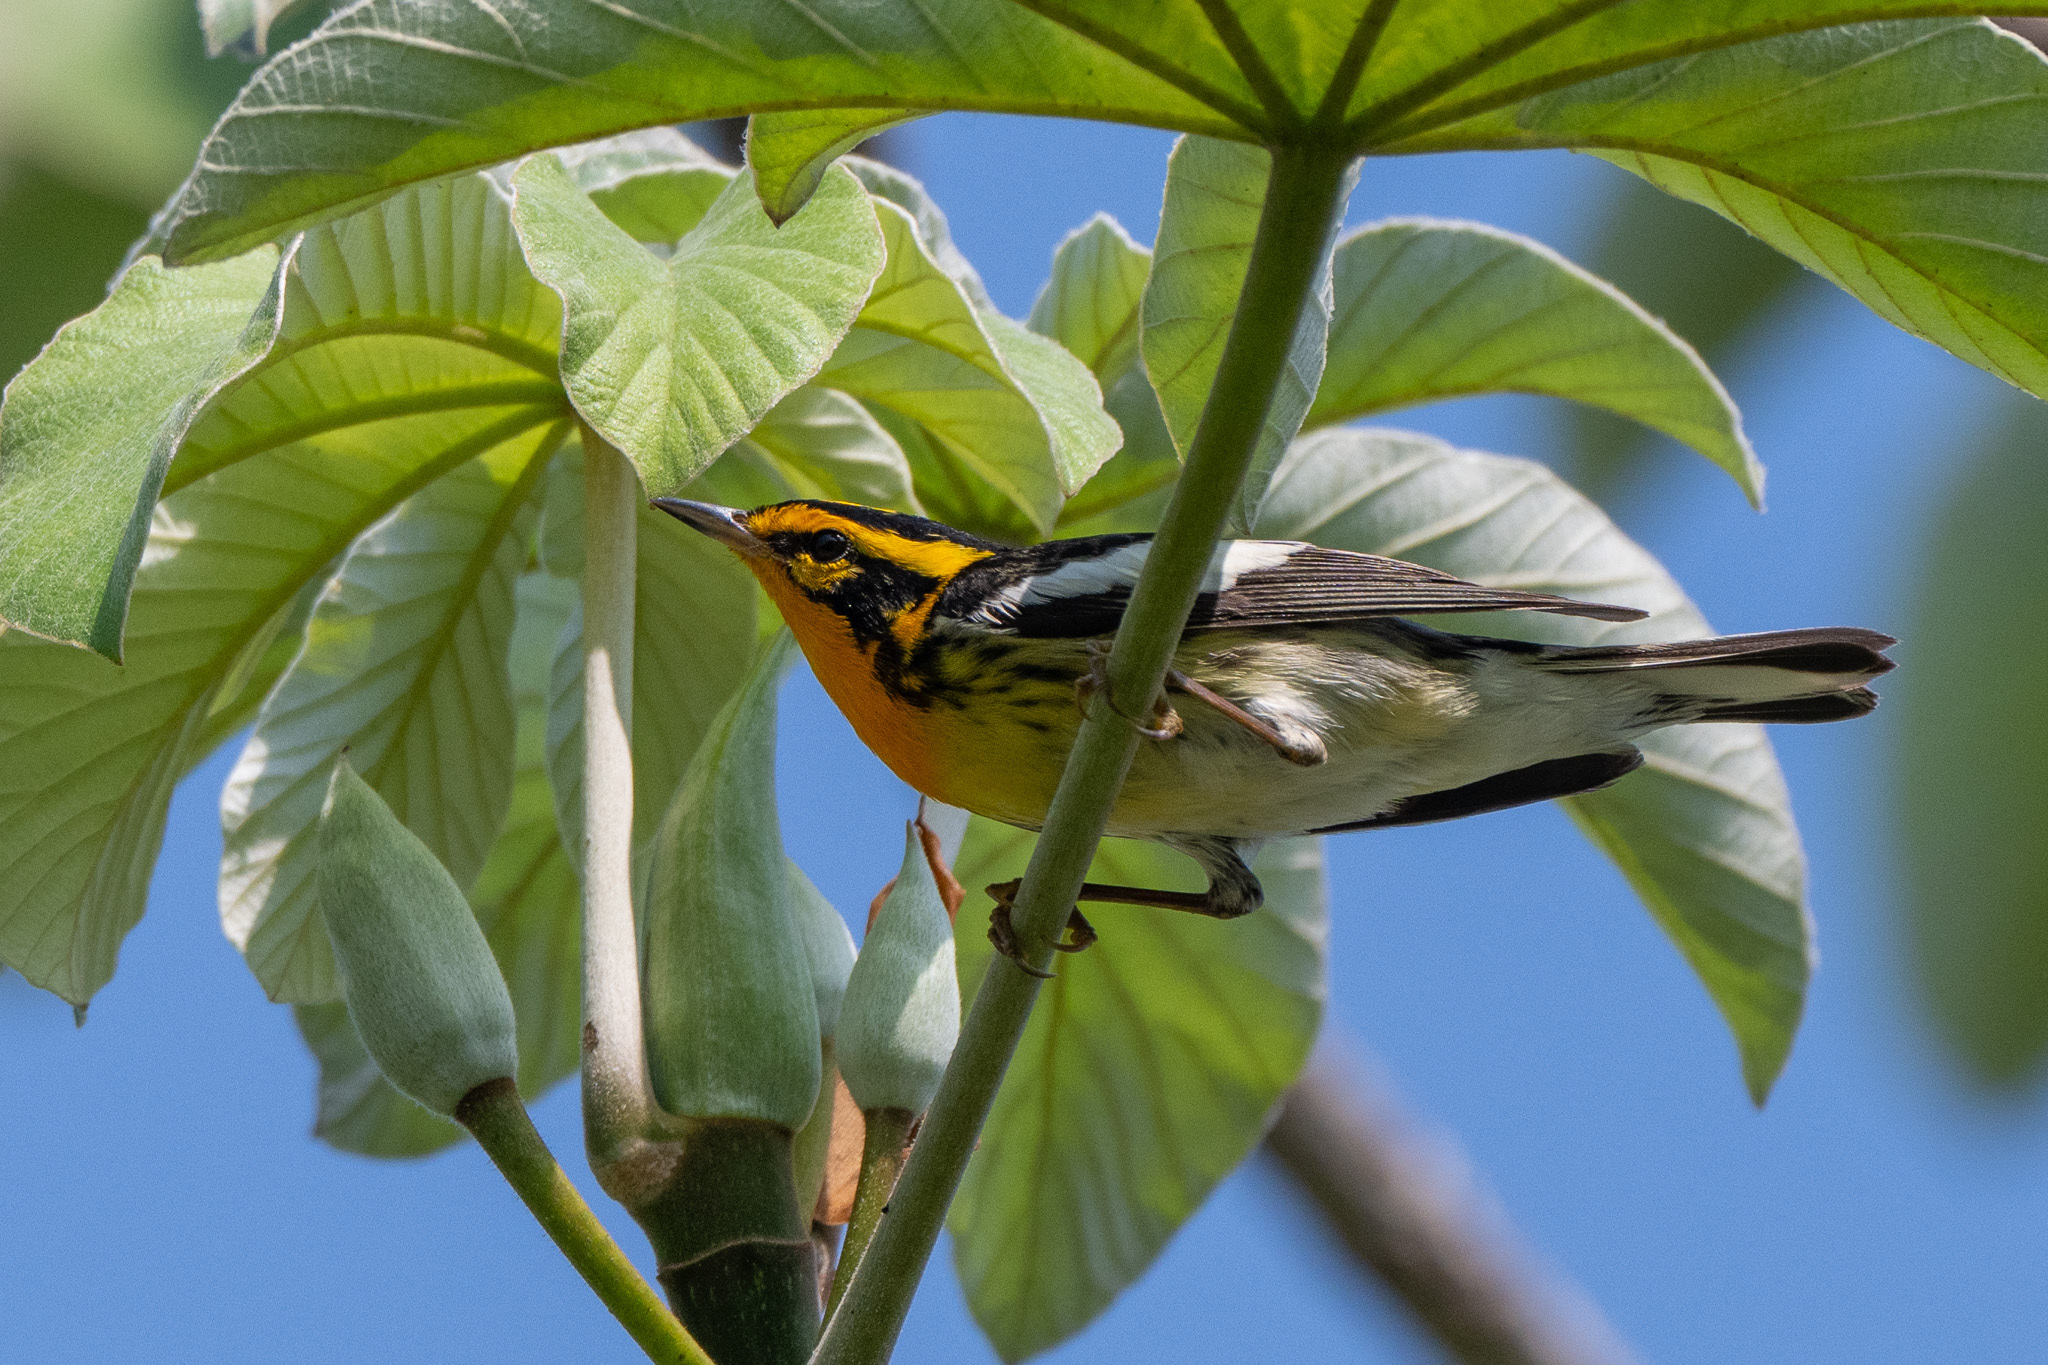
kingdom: Animalia
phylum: Chordata
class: Aves
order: Passeriformes
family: Parulidae
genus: Setophaga
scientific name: Setophaga fusca
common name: Blackburnian warbler
